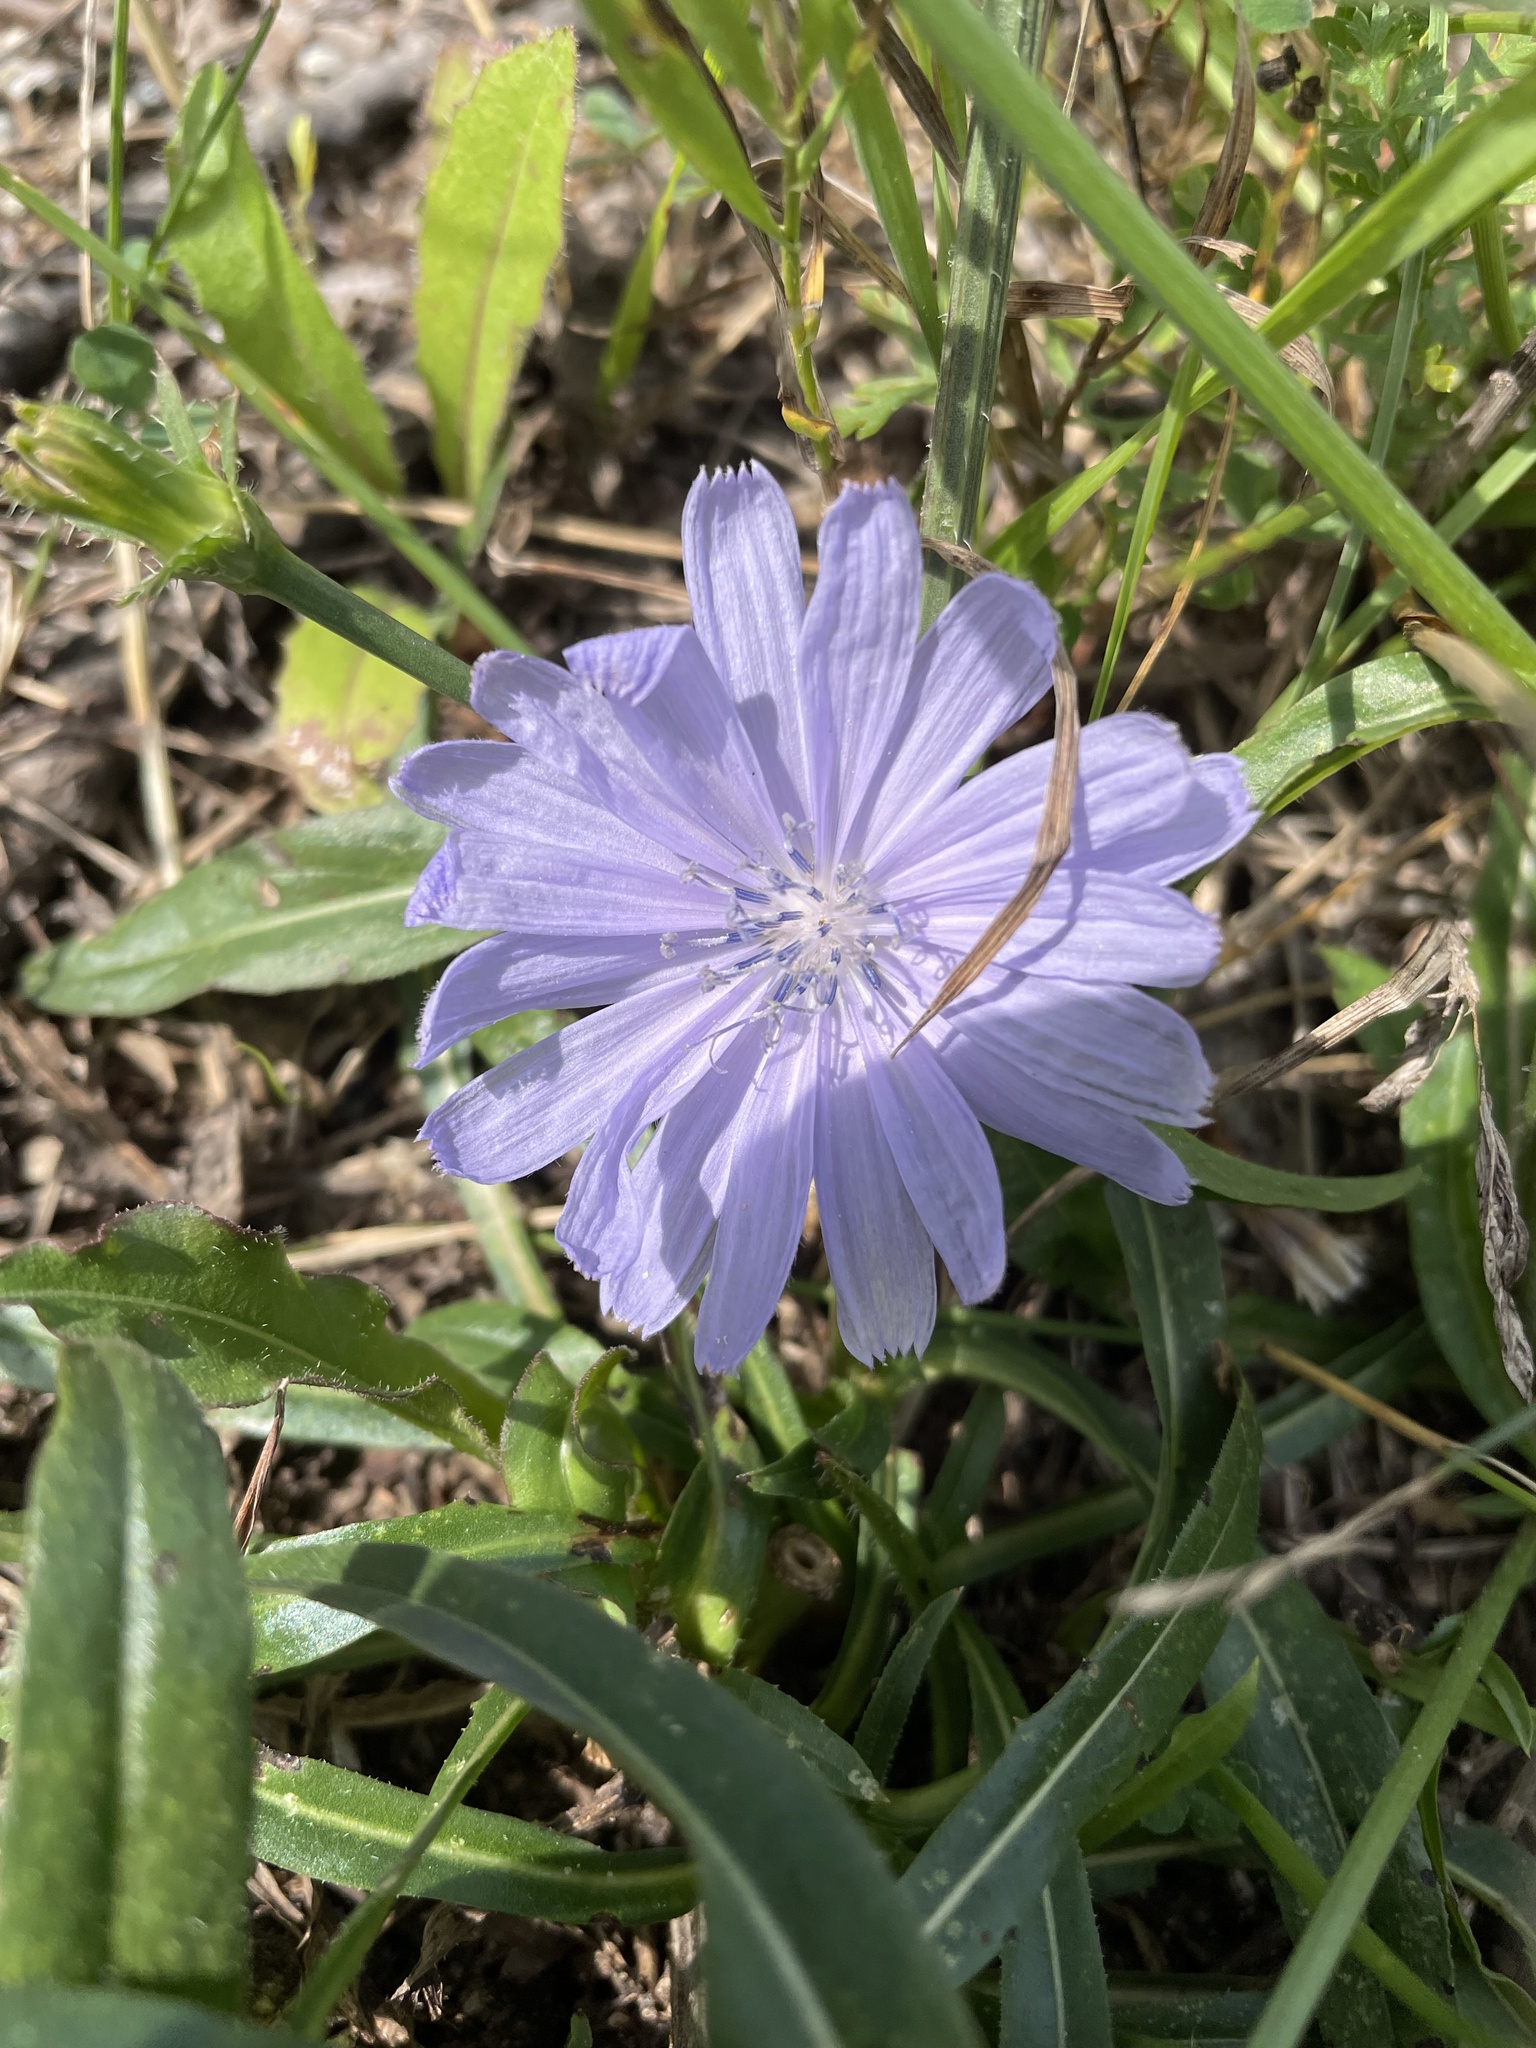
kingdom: Plantae
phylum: Tracheophyta
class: Magnoliopsida
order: Asterales
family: Asteraceae
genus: Cichorium
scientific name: Cichorium intybus
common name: Chicory
